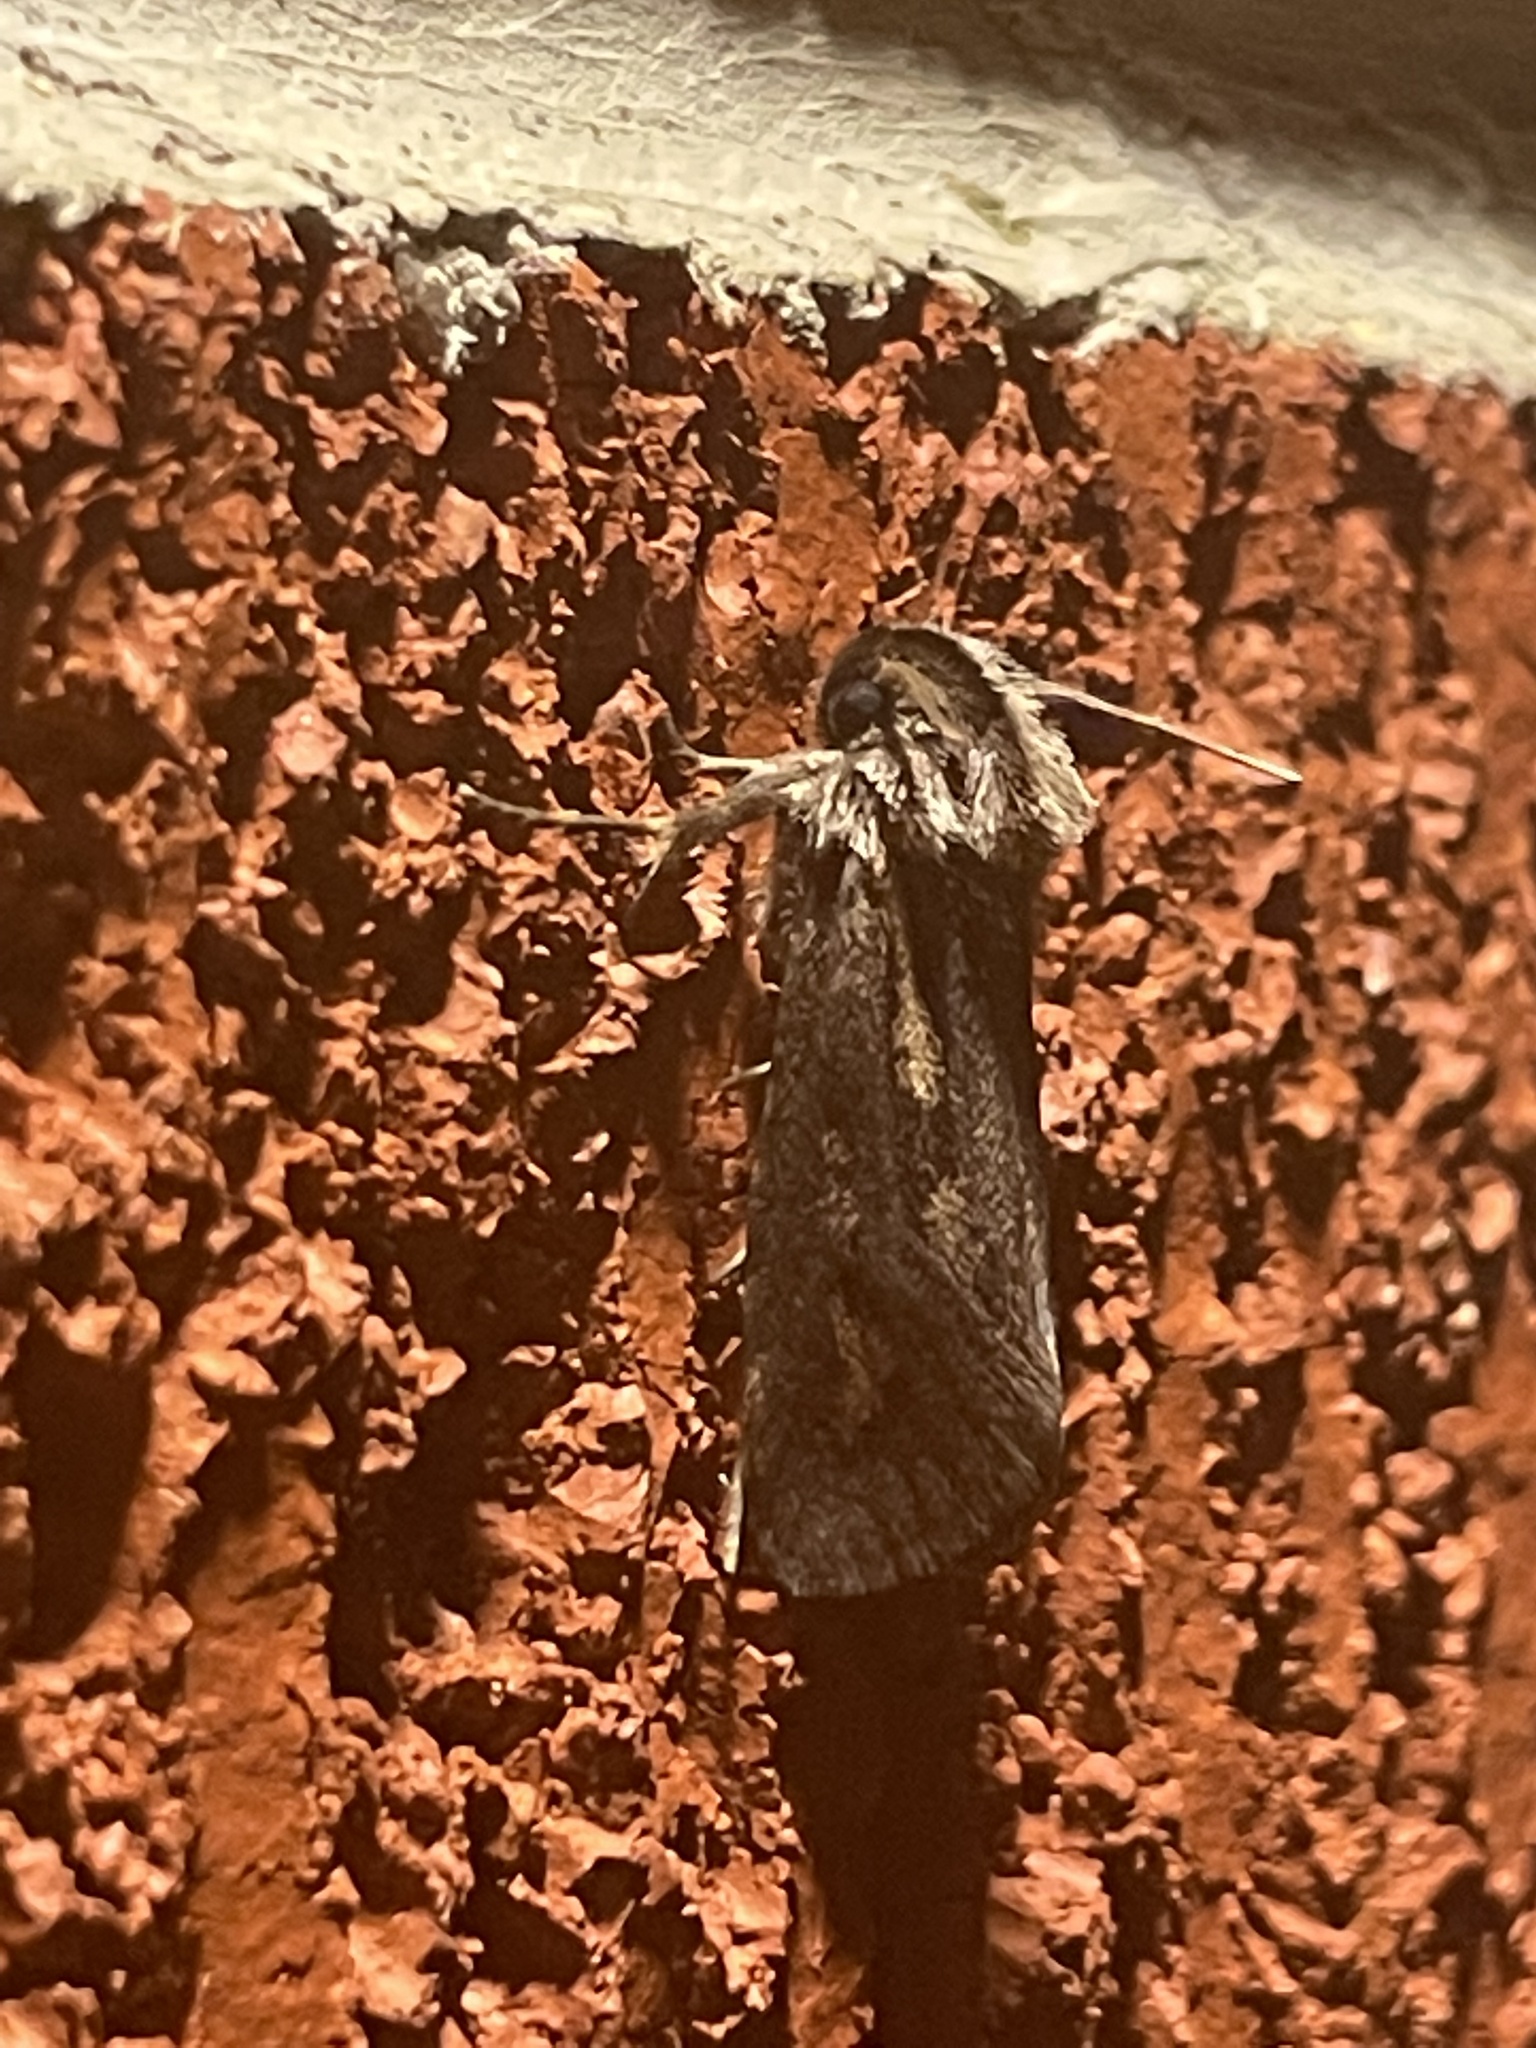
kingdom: Animalia
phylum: Arthropoda
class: Insecta
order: Lepidoptera
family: Tineidae
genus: Acrolophus
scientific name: Acrolophus popeanella
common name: Clemens' grass tubeworm moth
